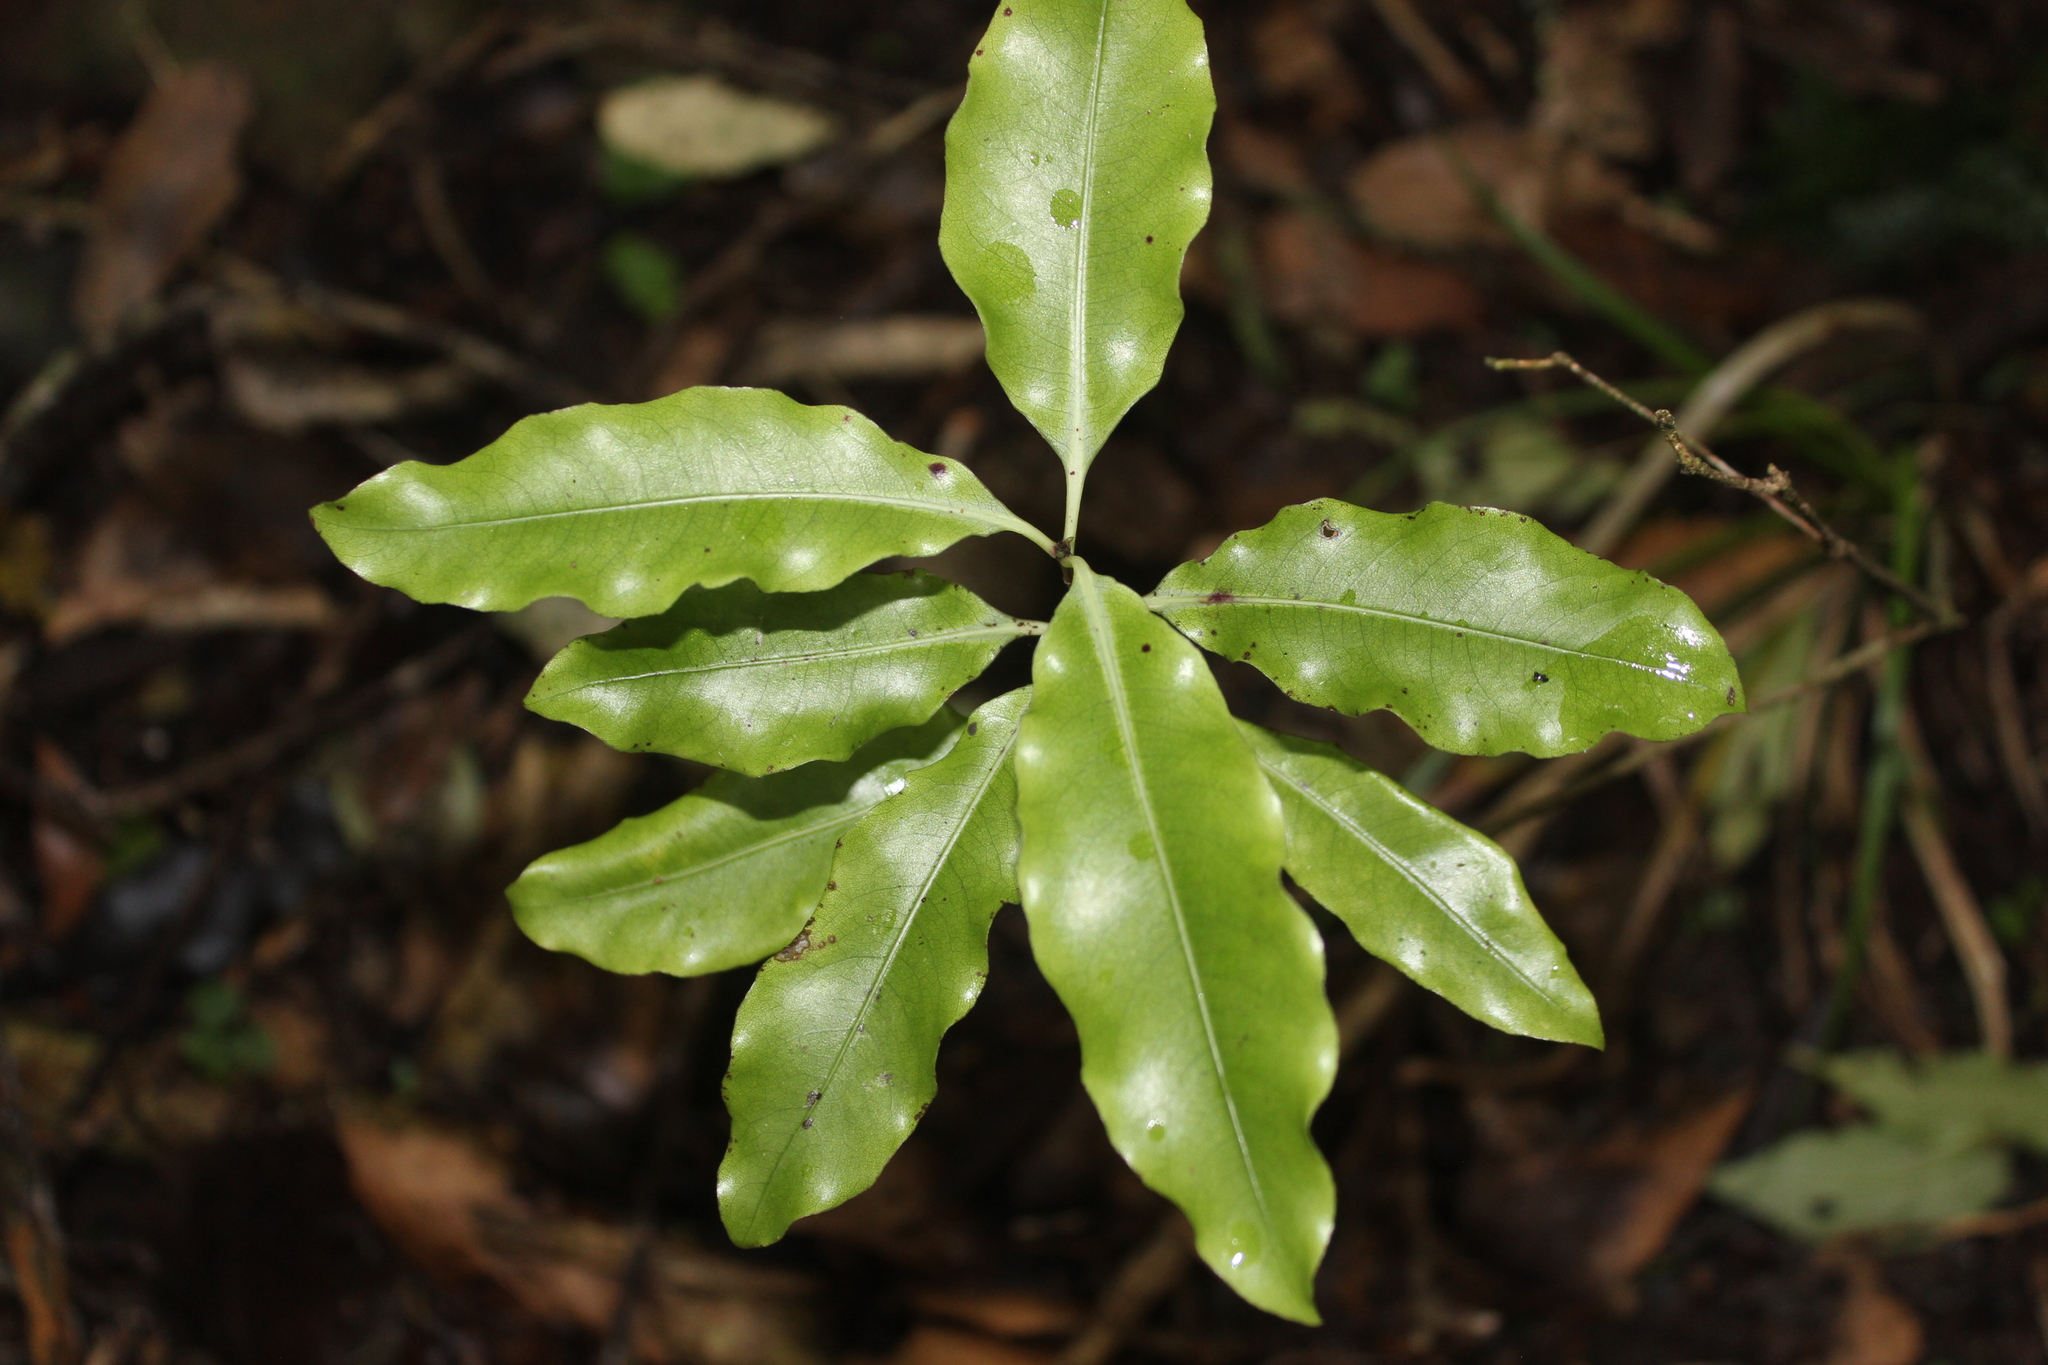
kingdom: Plantae
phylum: Tracheophyta
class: Magnoliopsida
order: Apiales
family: Pittosporaceae
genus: Pittosporum
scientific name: Pittosporum eugenioides
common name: Lemonwood
